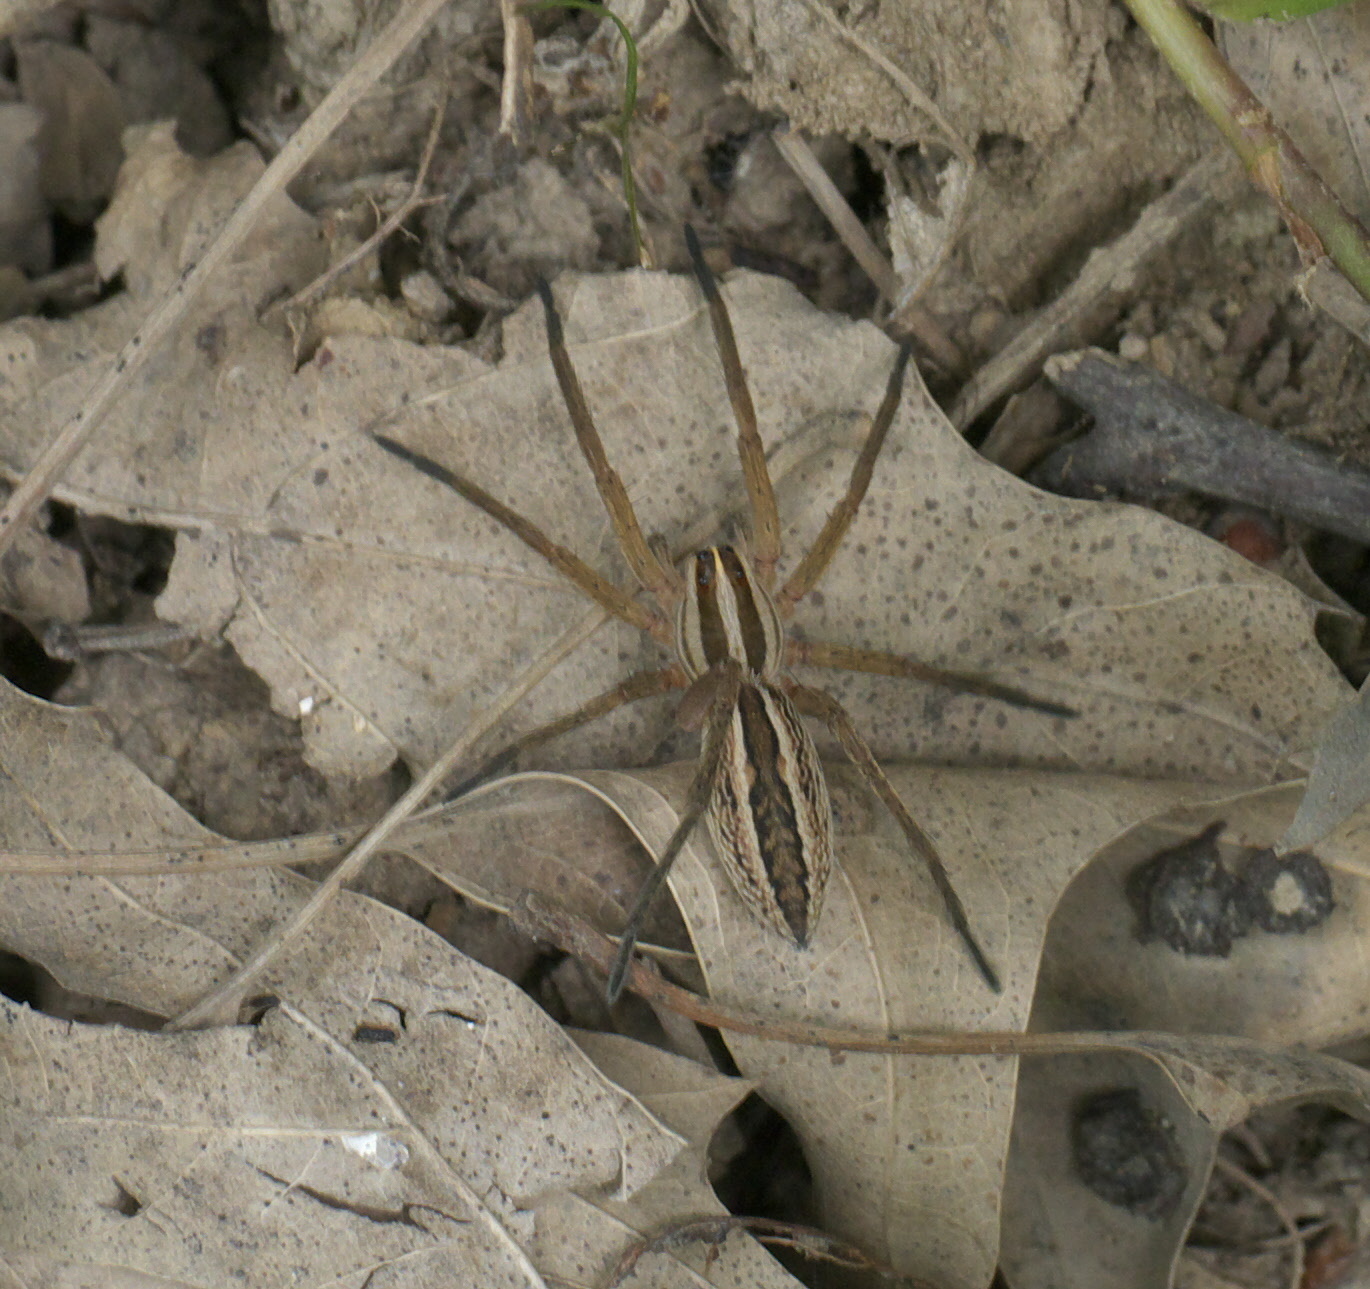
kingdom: Animalia
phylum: Arthropoda
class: Arachnida
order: Araneae
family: Lycosidae
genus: Rabidosa
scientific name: Rabidosa rabida
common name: Rabid wolf spider
